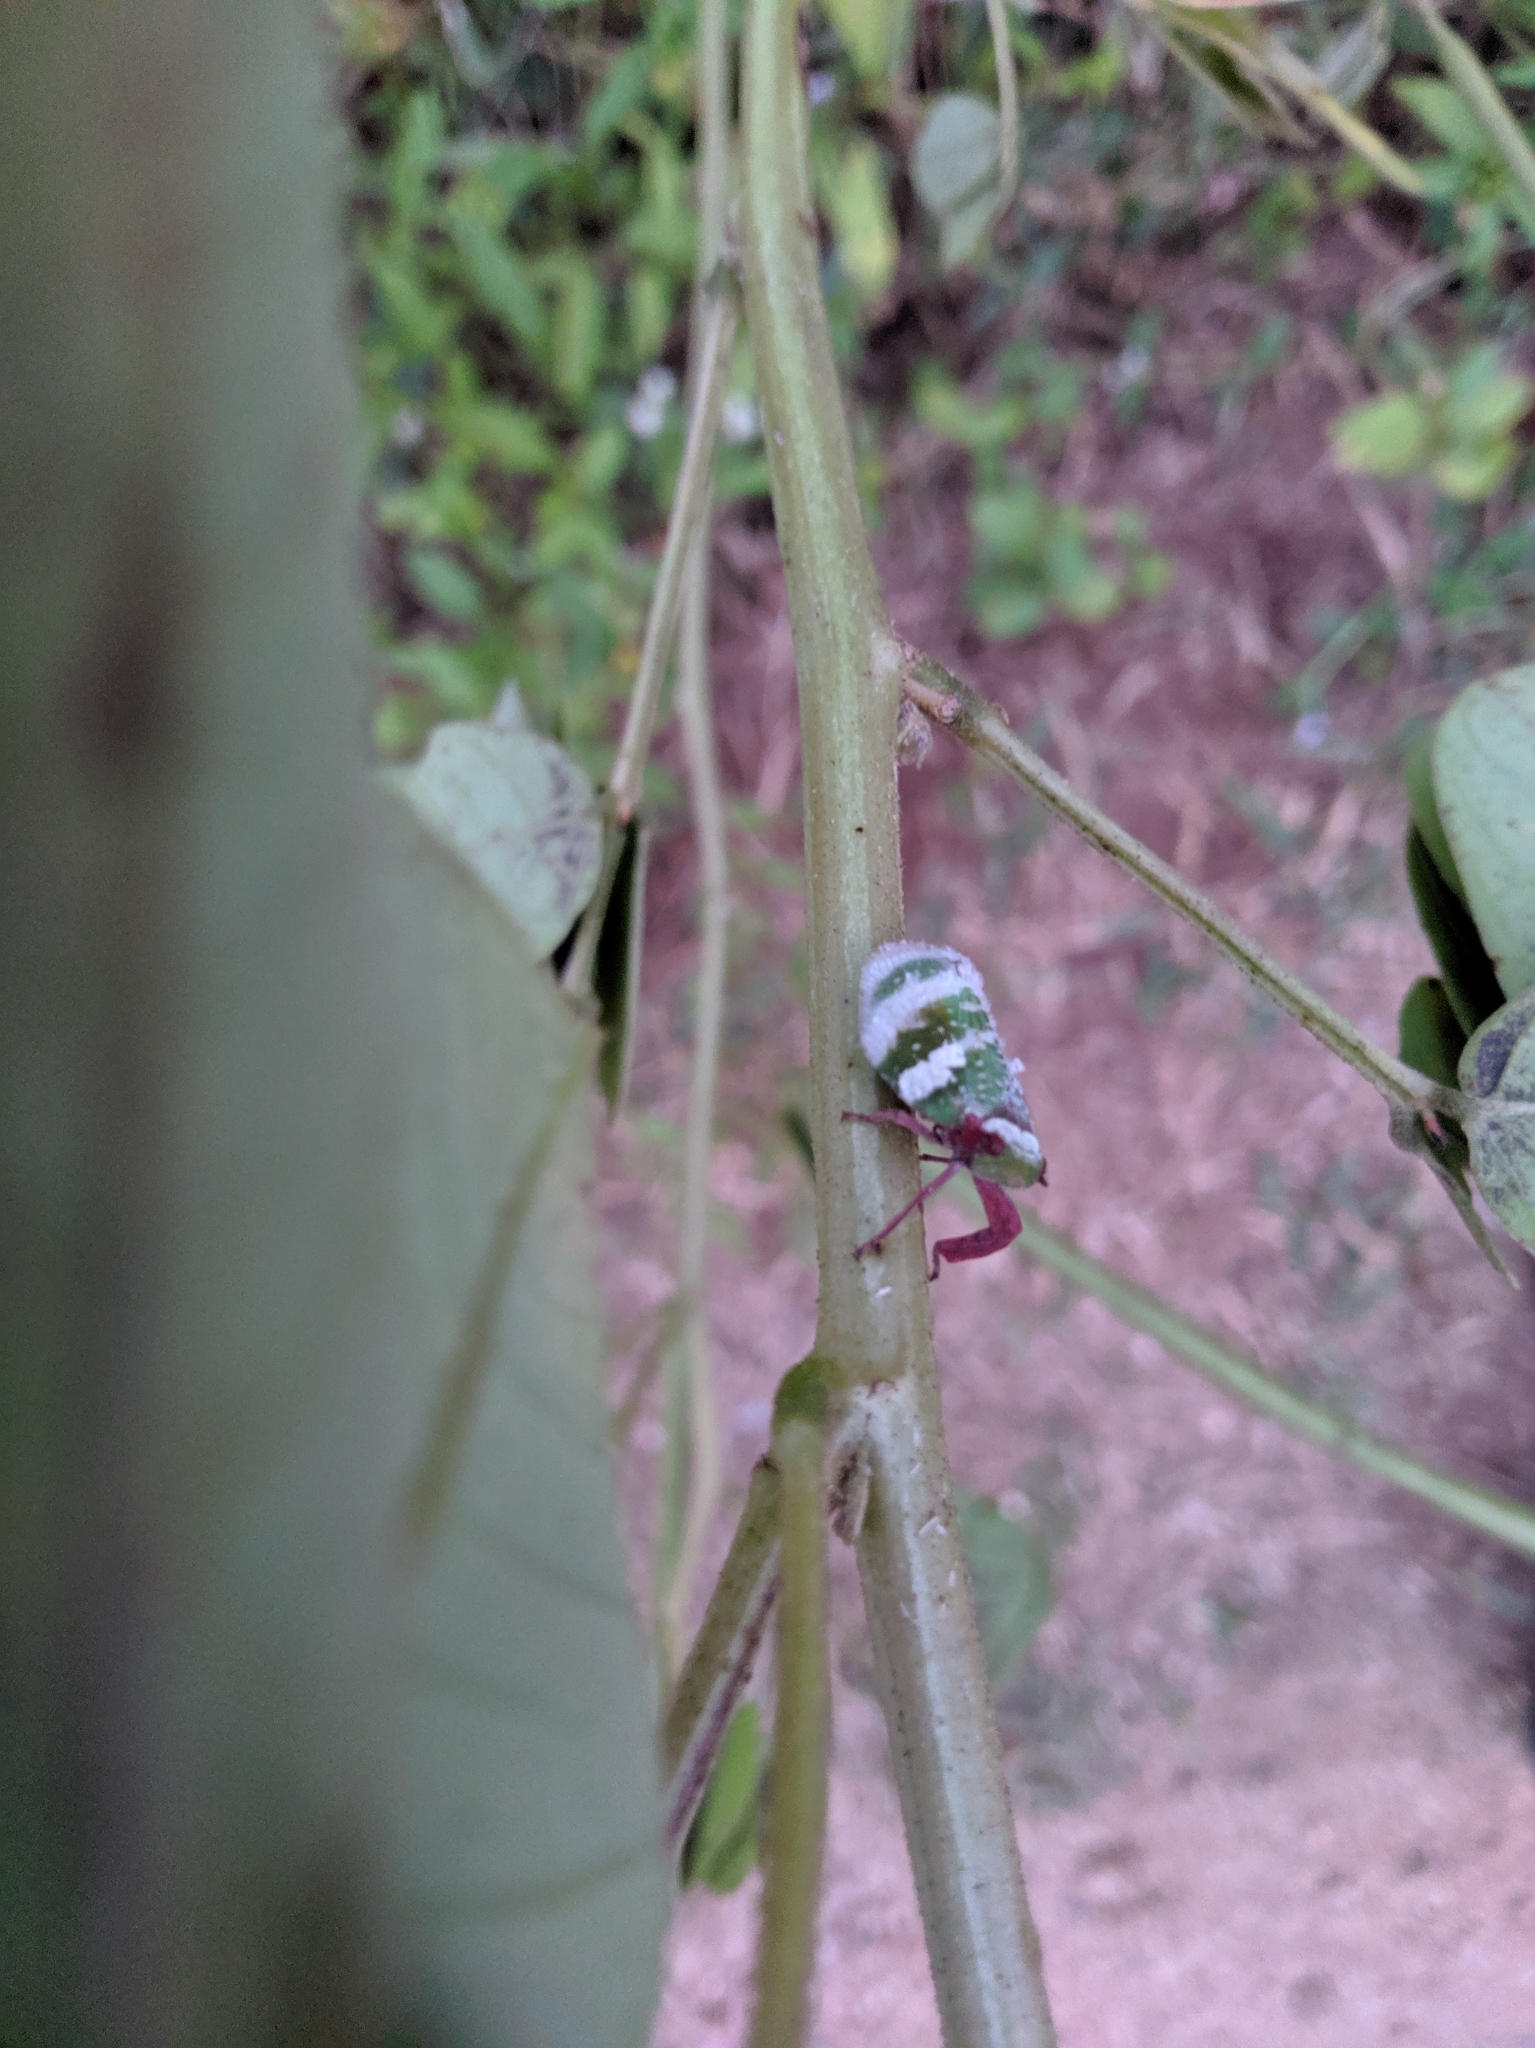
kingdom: Animalia
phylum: Arthropoda
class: Insecta
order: Hemiptera
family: Eurybrachidae
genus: Eurybrachys
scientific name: Eurybrachys tomentosa
